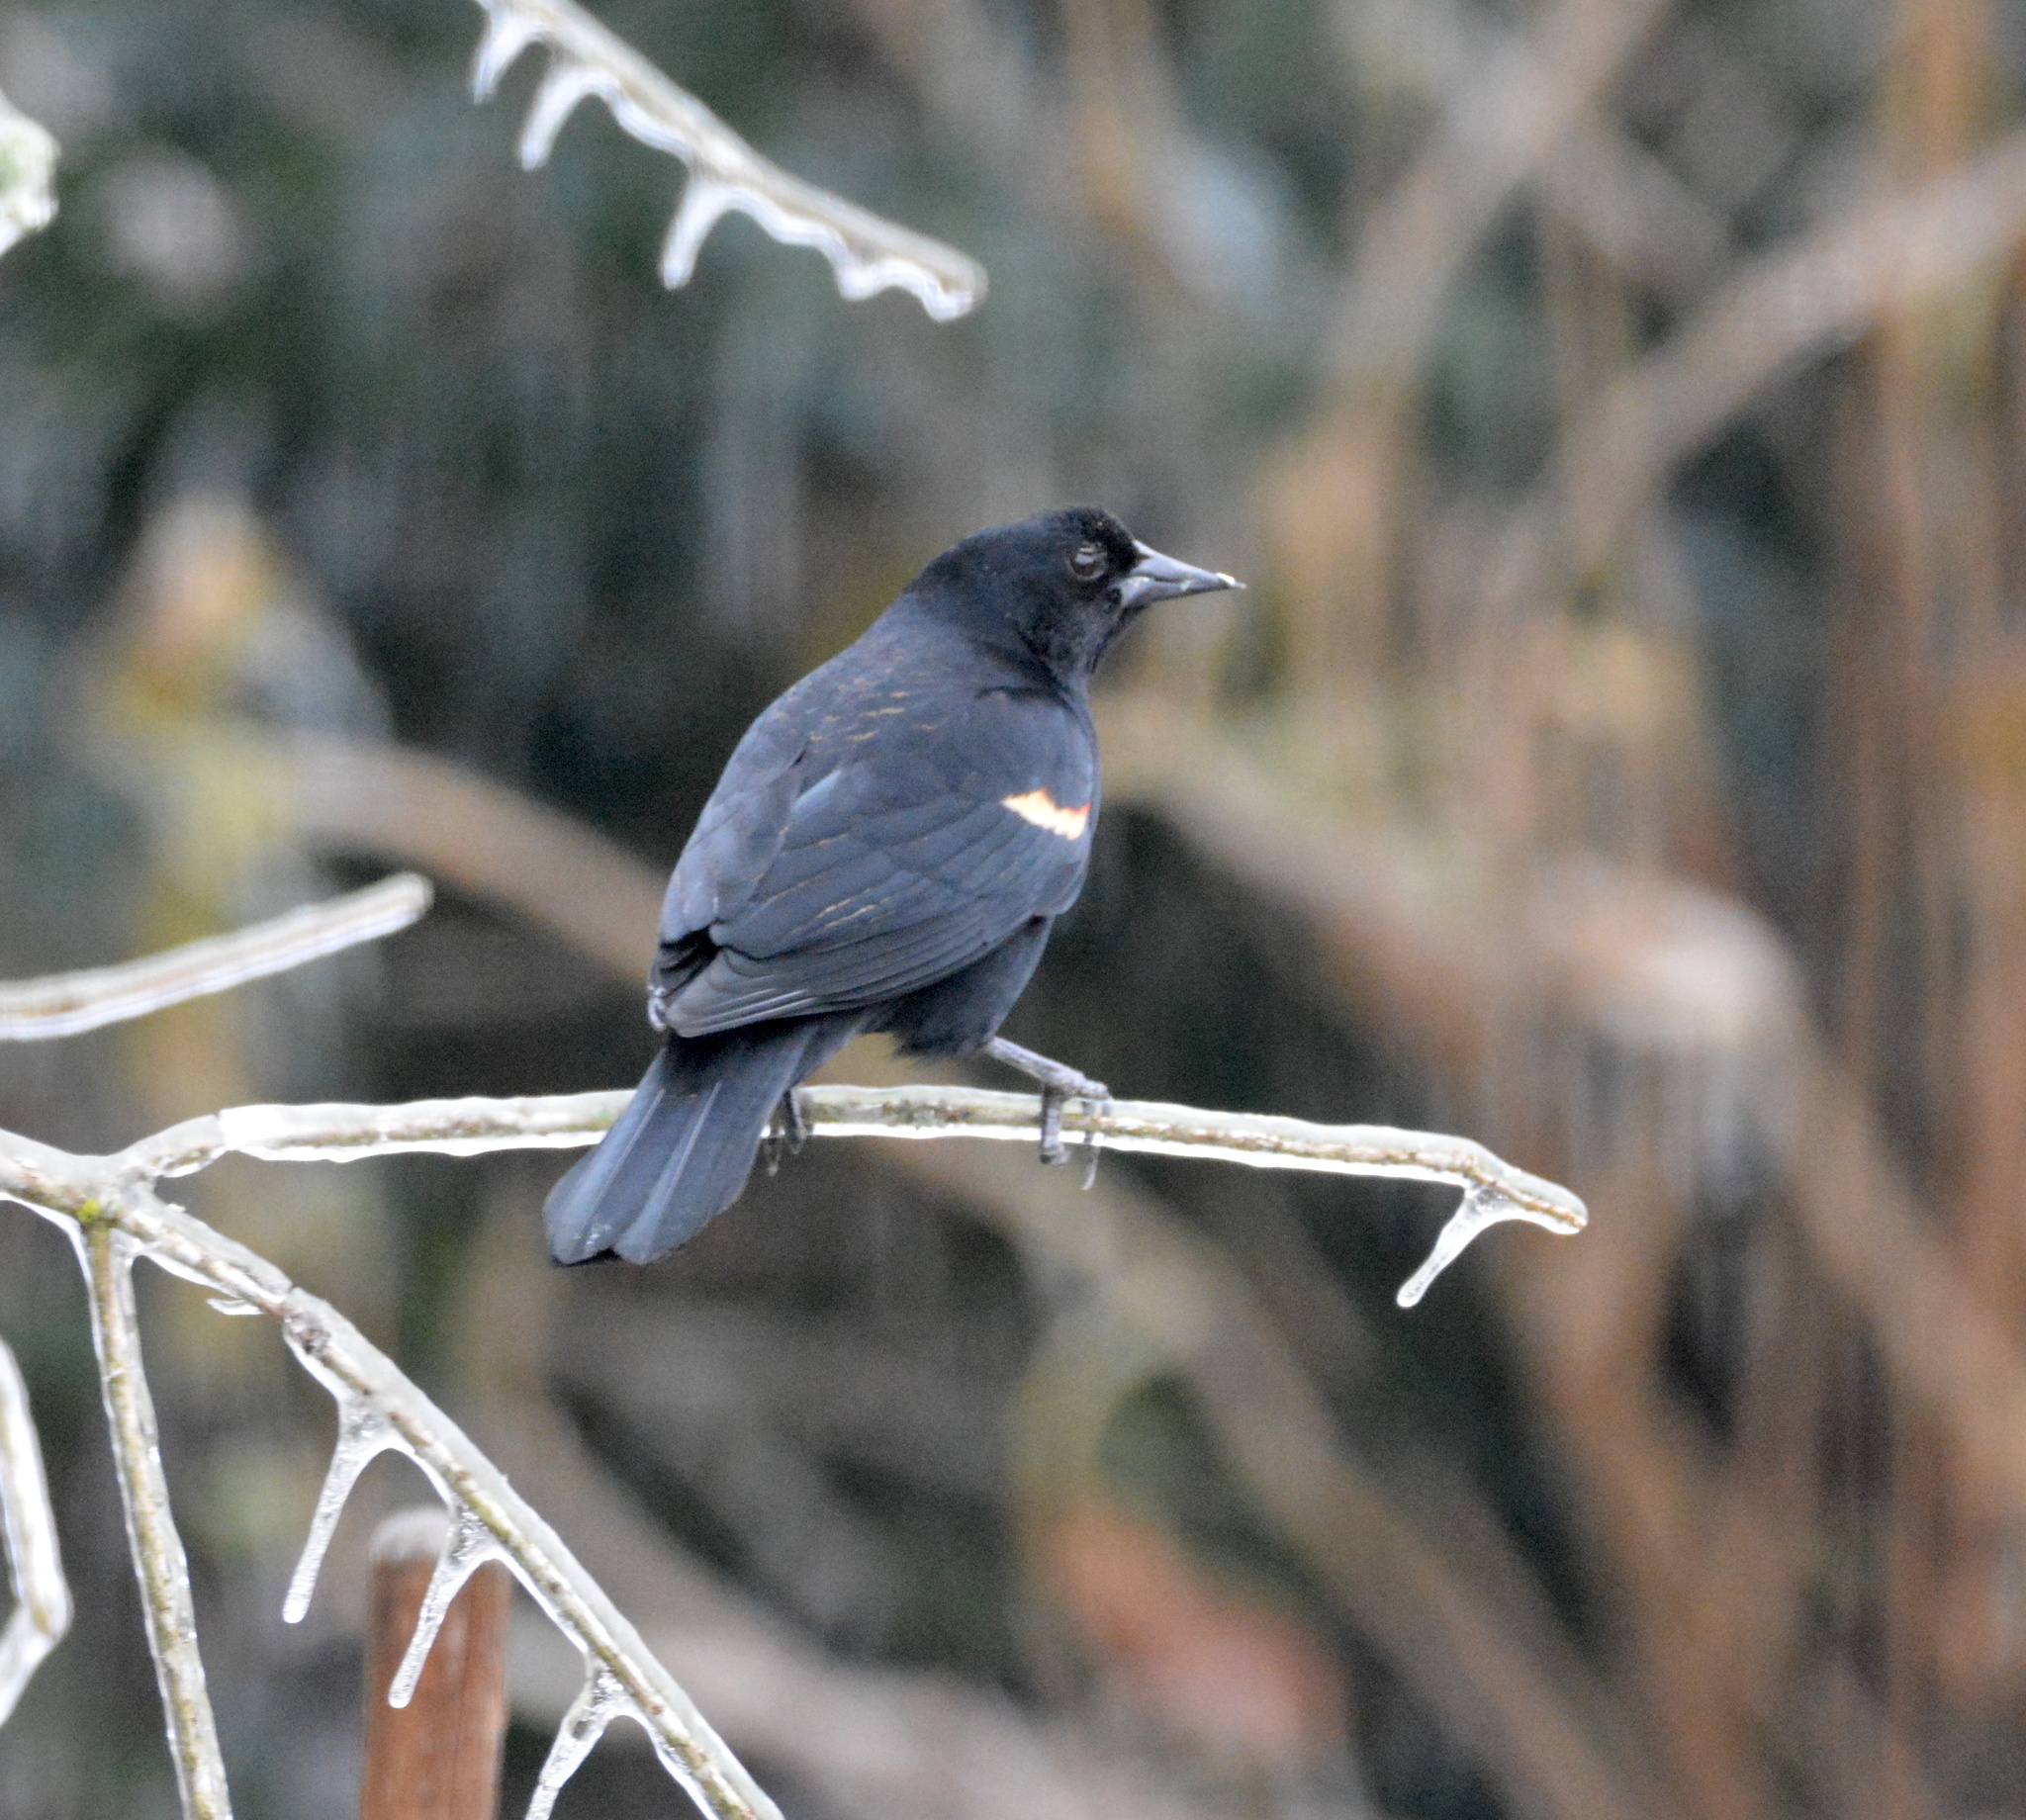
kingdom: Animalia
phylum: Chordata
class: Aves
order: Passeriformes
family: Icteridae
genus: Agelaius
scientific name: Agelaius phoeniceus
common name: Red-winged blackbird
